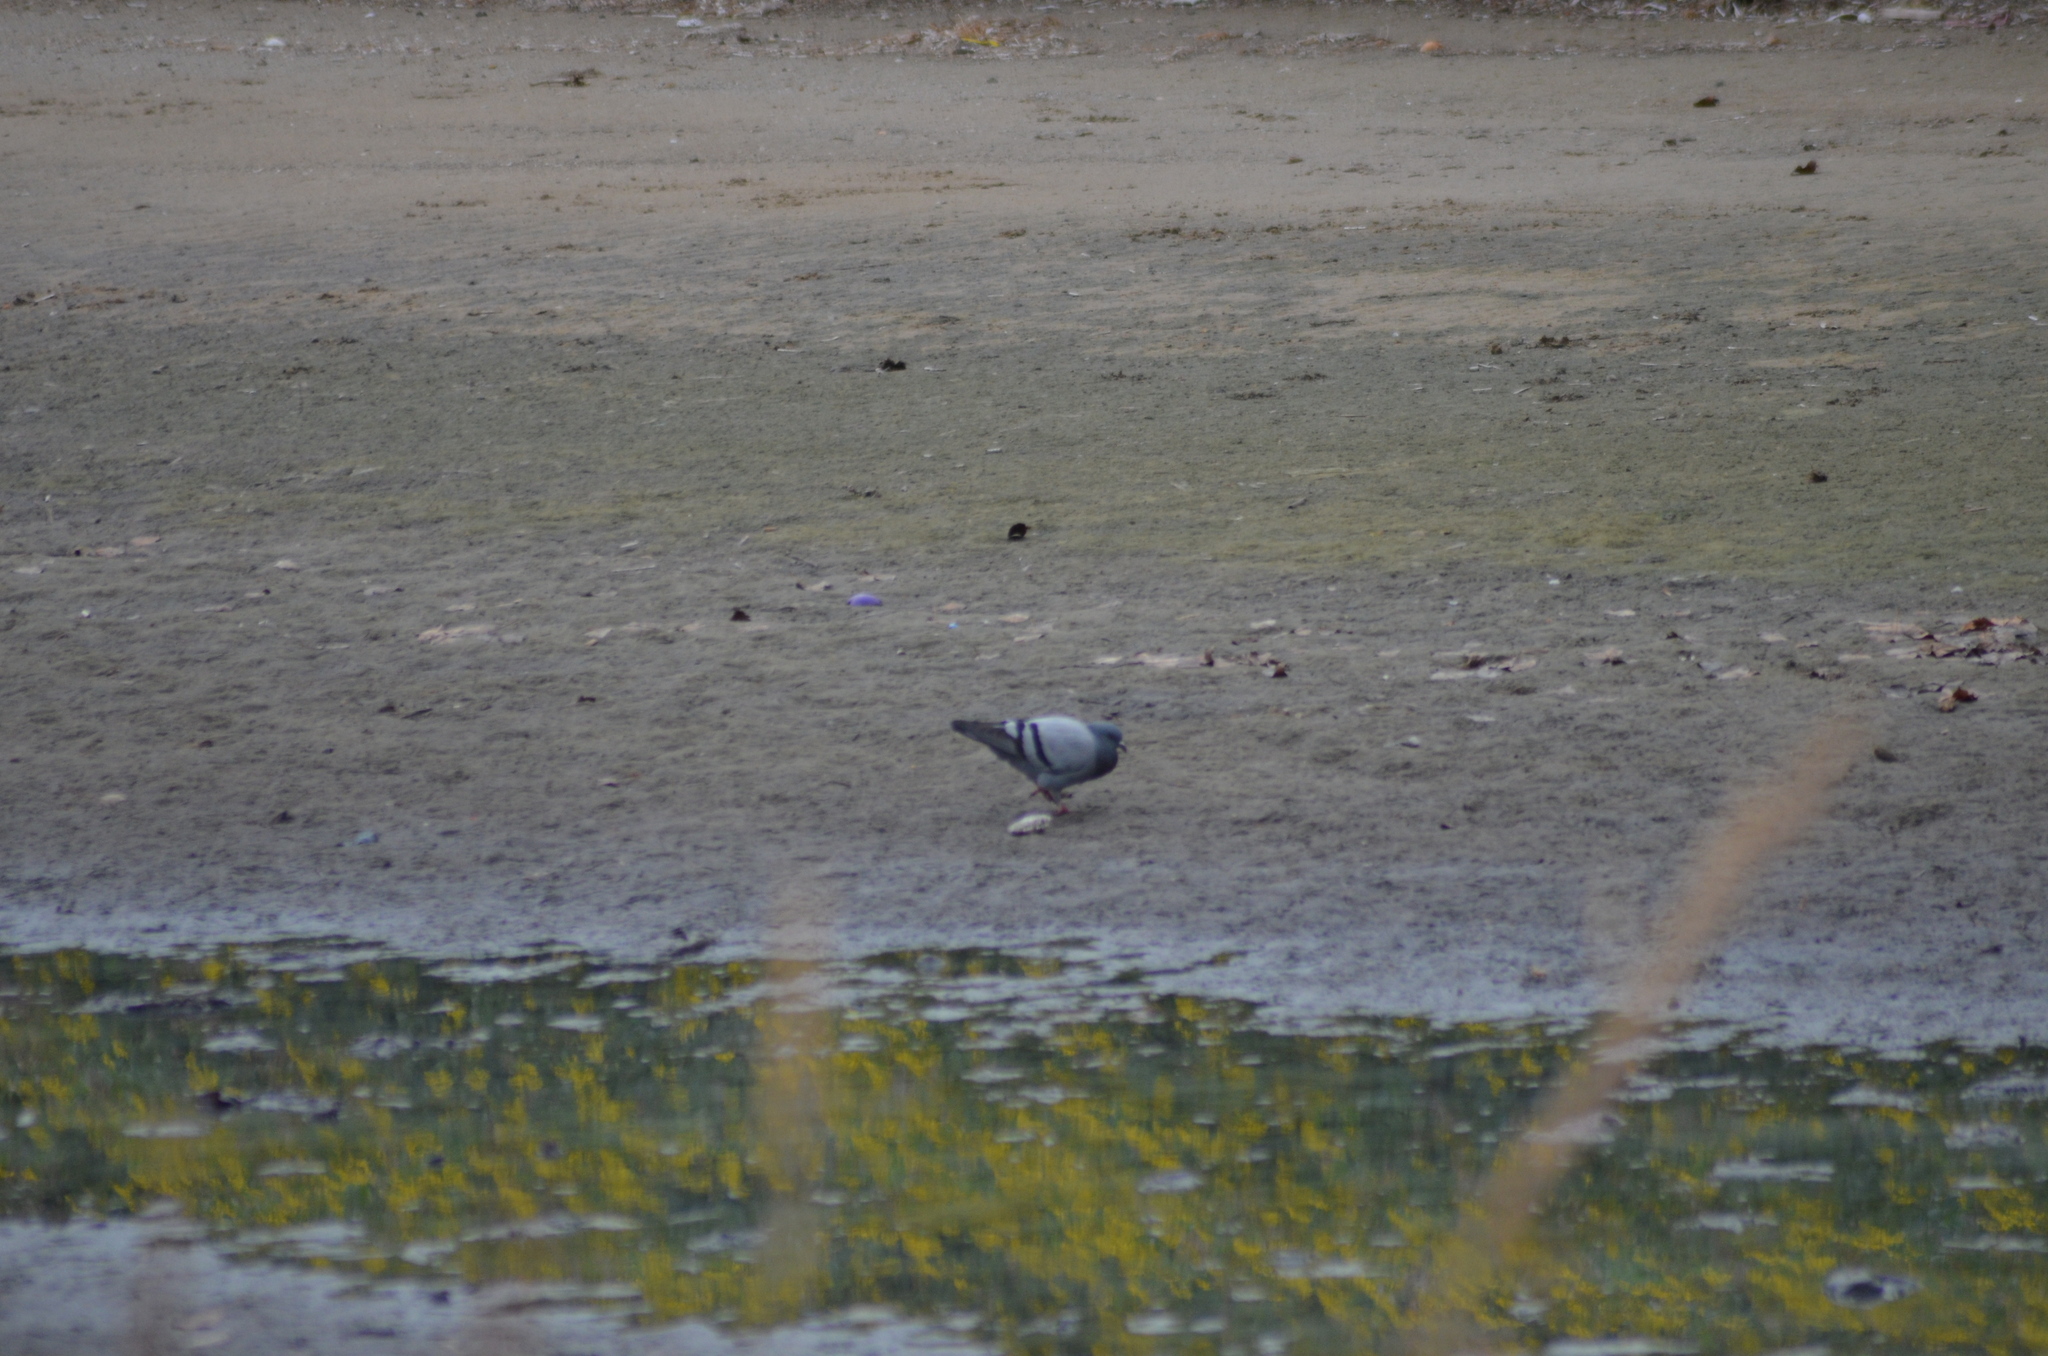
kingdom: Animalia
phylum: Chordata
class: Aves
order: Columbiformes
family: Columbidae
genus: Columba
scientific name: Columba livia
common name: Rock pigeon
